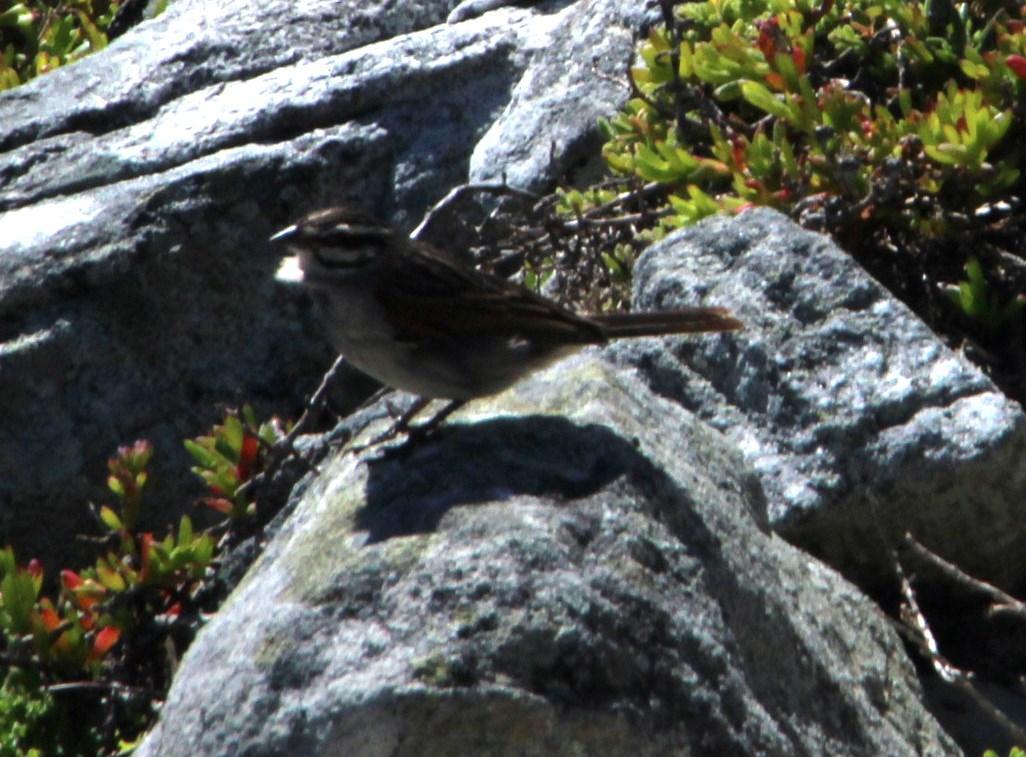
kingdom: Animalia
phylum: Chordata
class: Aves
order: Passeriformes
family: Emberizidae
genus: Emberiza
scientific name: Emberiza capensis
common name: Cape bunting
